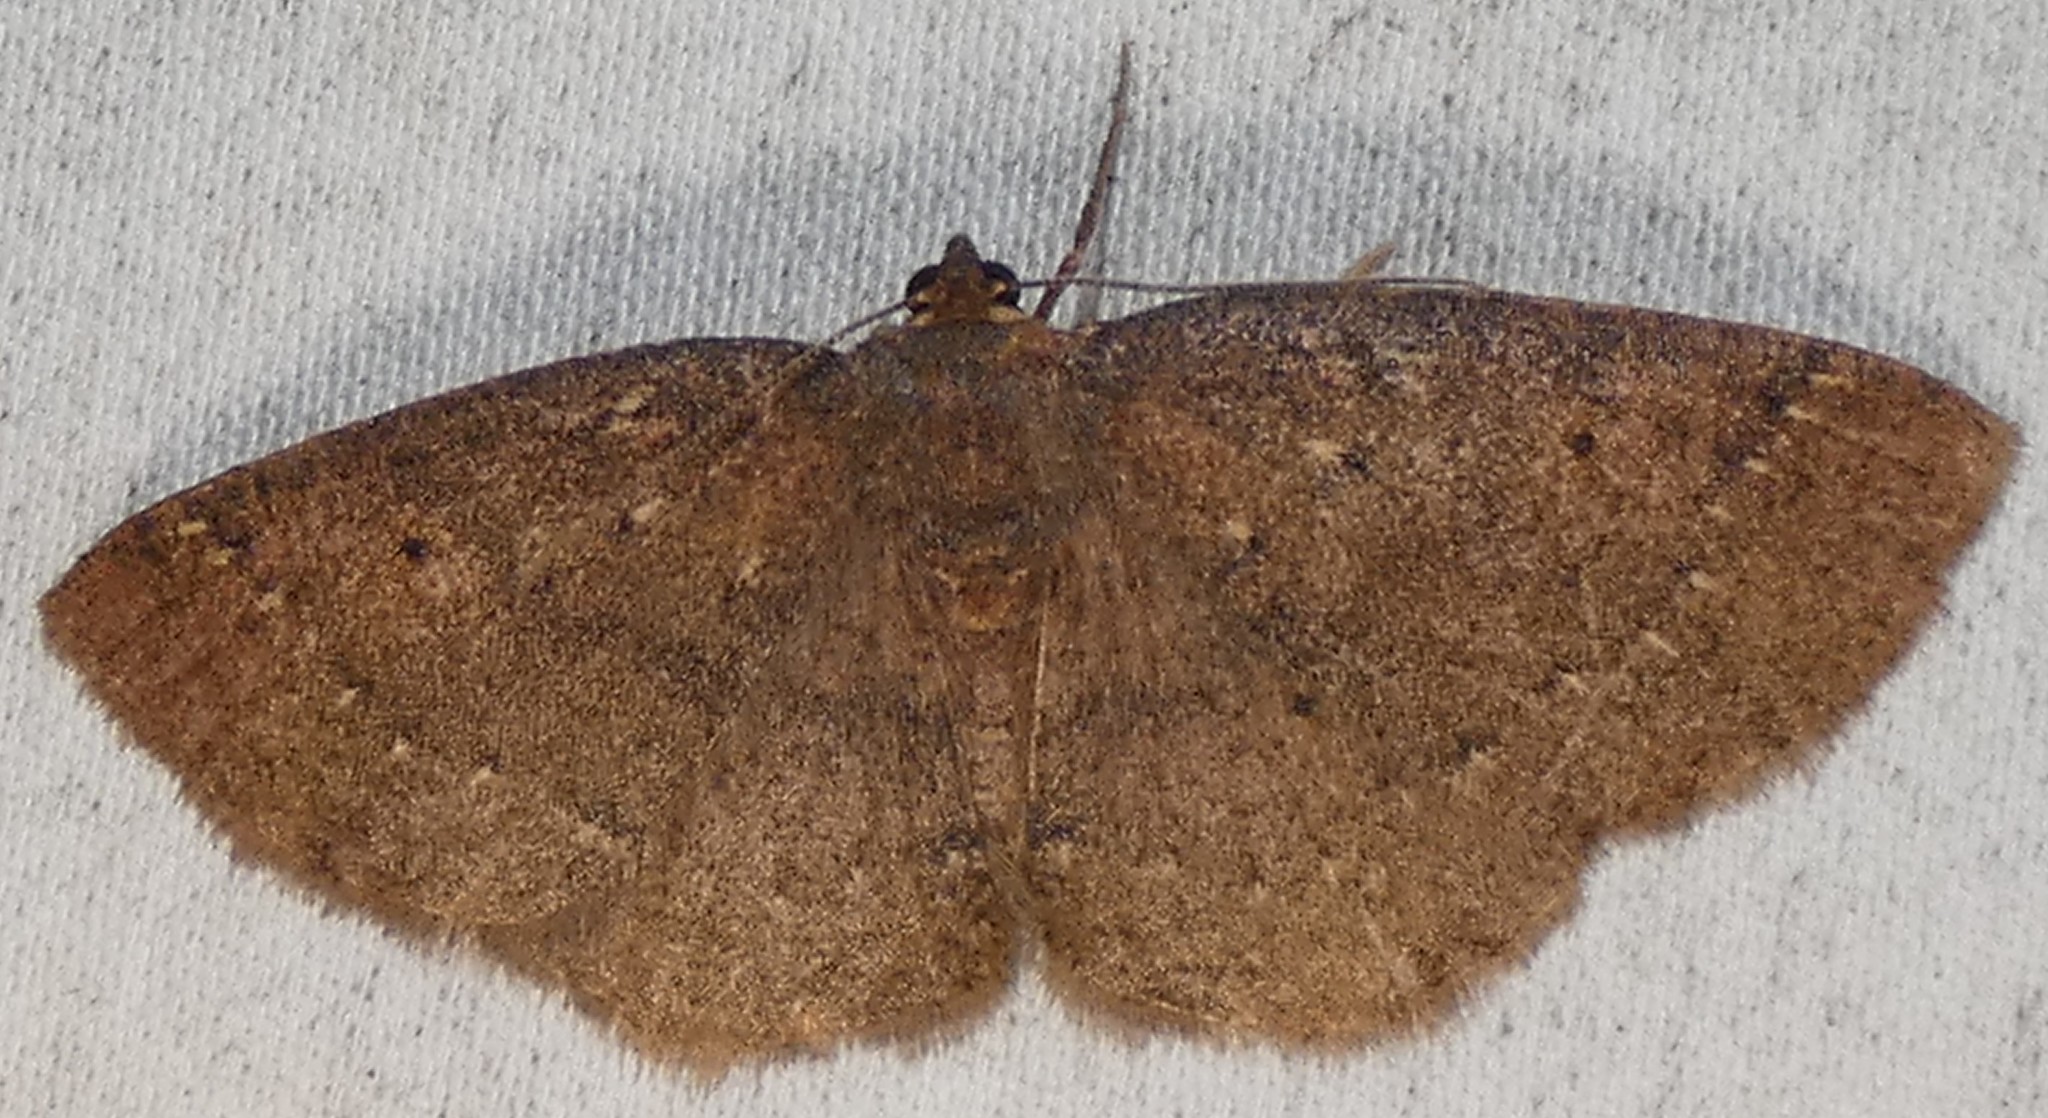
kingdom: Animalia
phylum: Arthropoda
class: Insecta
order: Lepidoptera
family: Geometridae
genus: Ilexia
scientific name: Ilexia intractata
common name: Black-dotted ruddy moth
